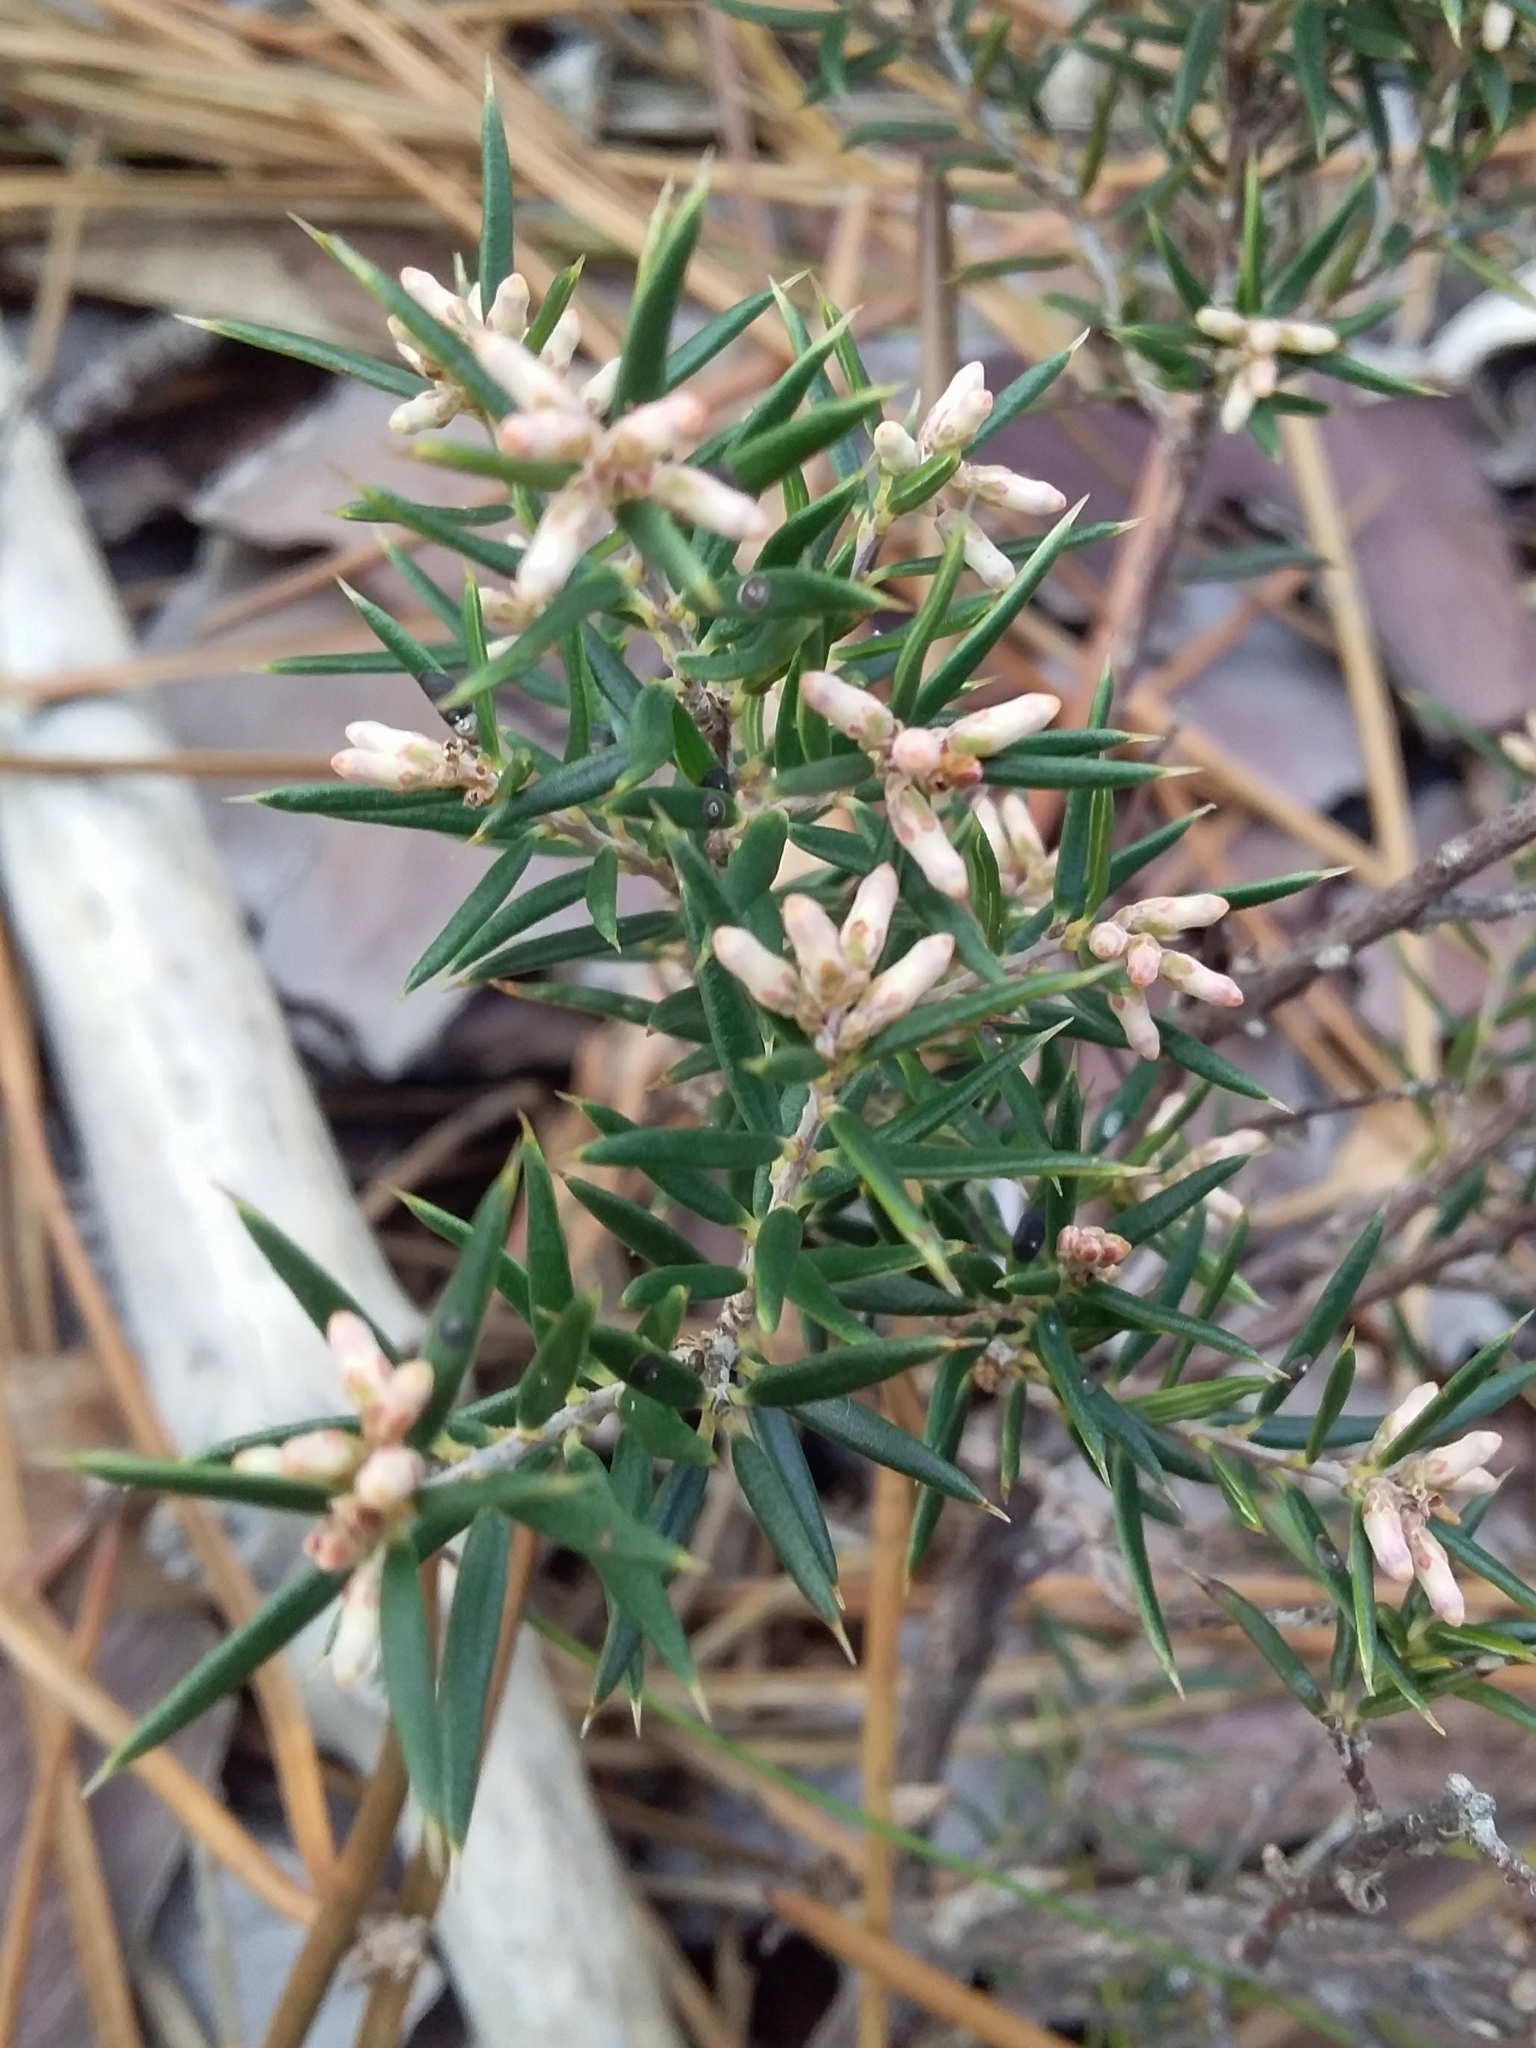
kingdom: Plantae
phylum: Tracheophyta
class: Magnoliopsida
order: Ericales
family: Ericaceae
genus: Lissanthe
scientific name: Lissanthe strigosa
